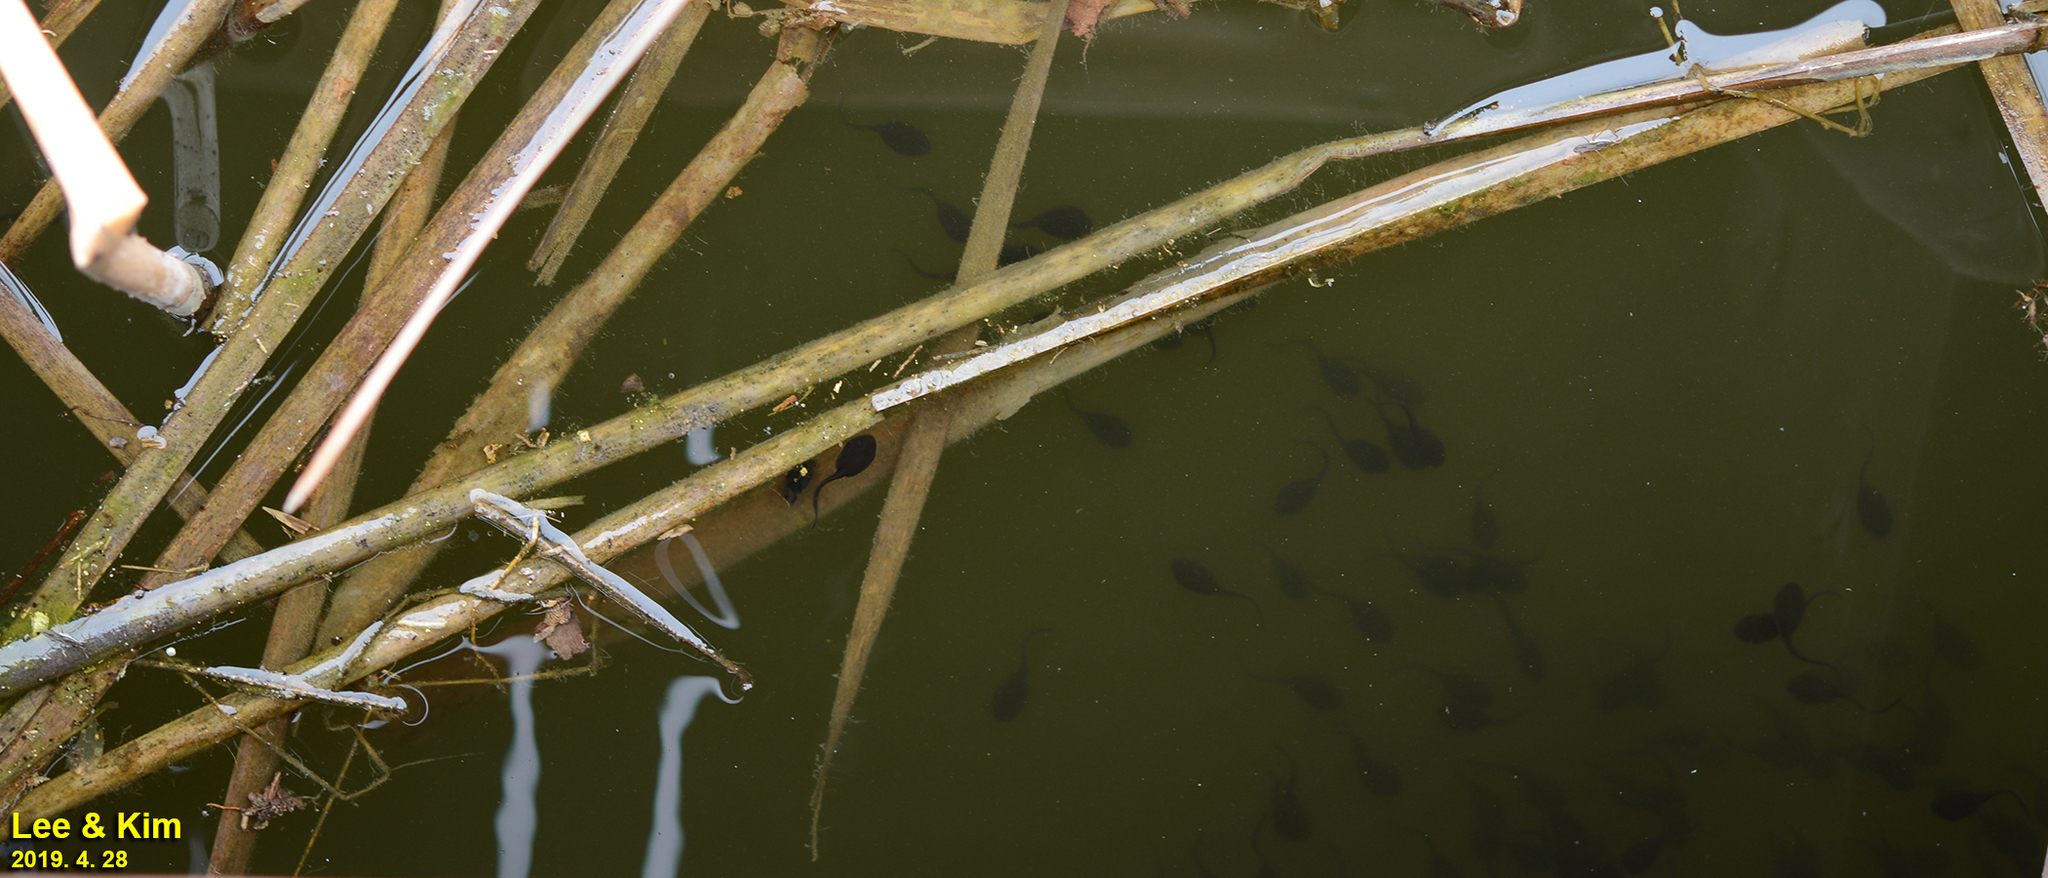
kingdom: Animalia
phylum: Chordata
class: Amphibia
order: Anura
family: Bufonidae
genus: Bufo
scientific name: Bufo gargarizans
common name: Asiatic toad
